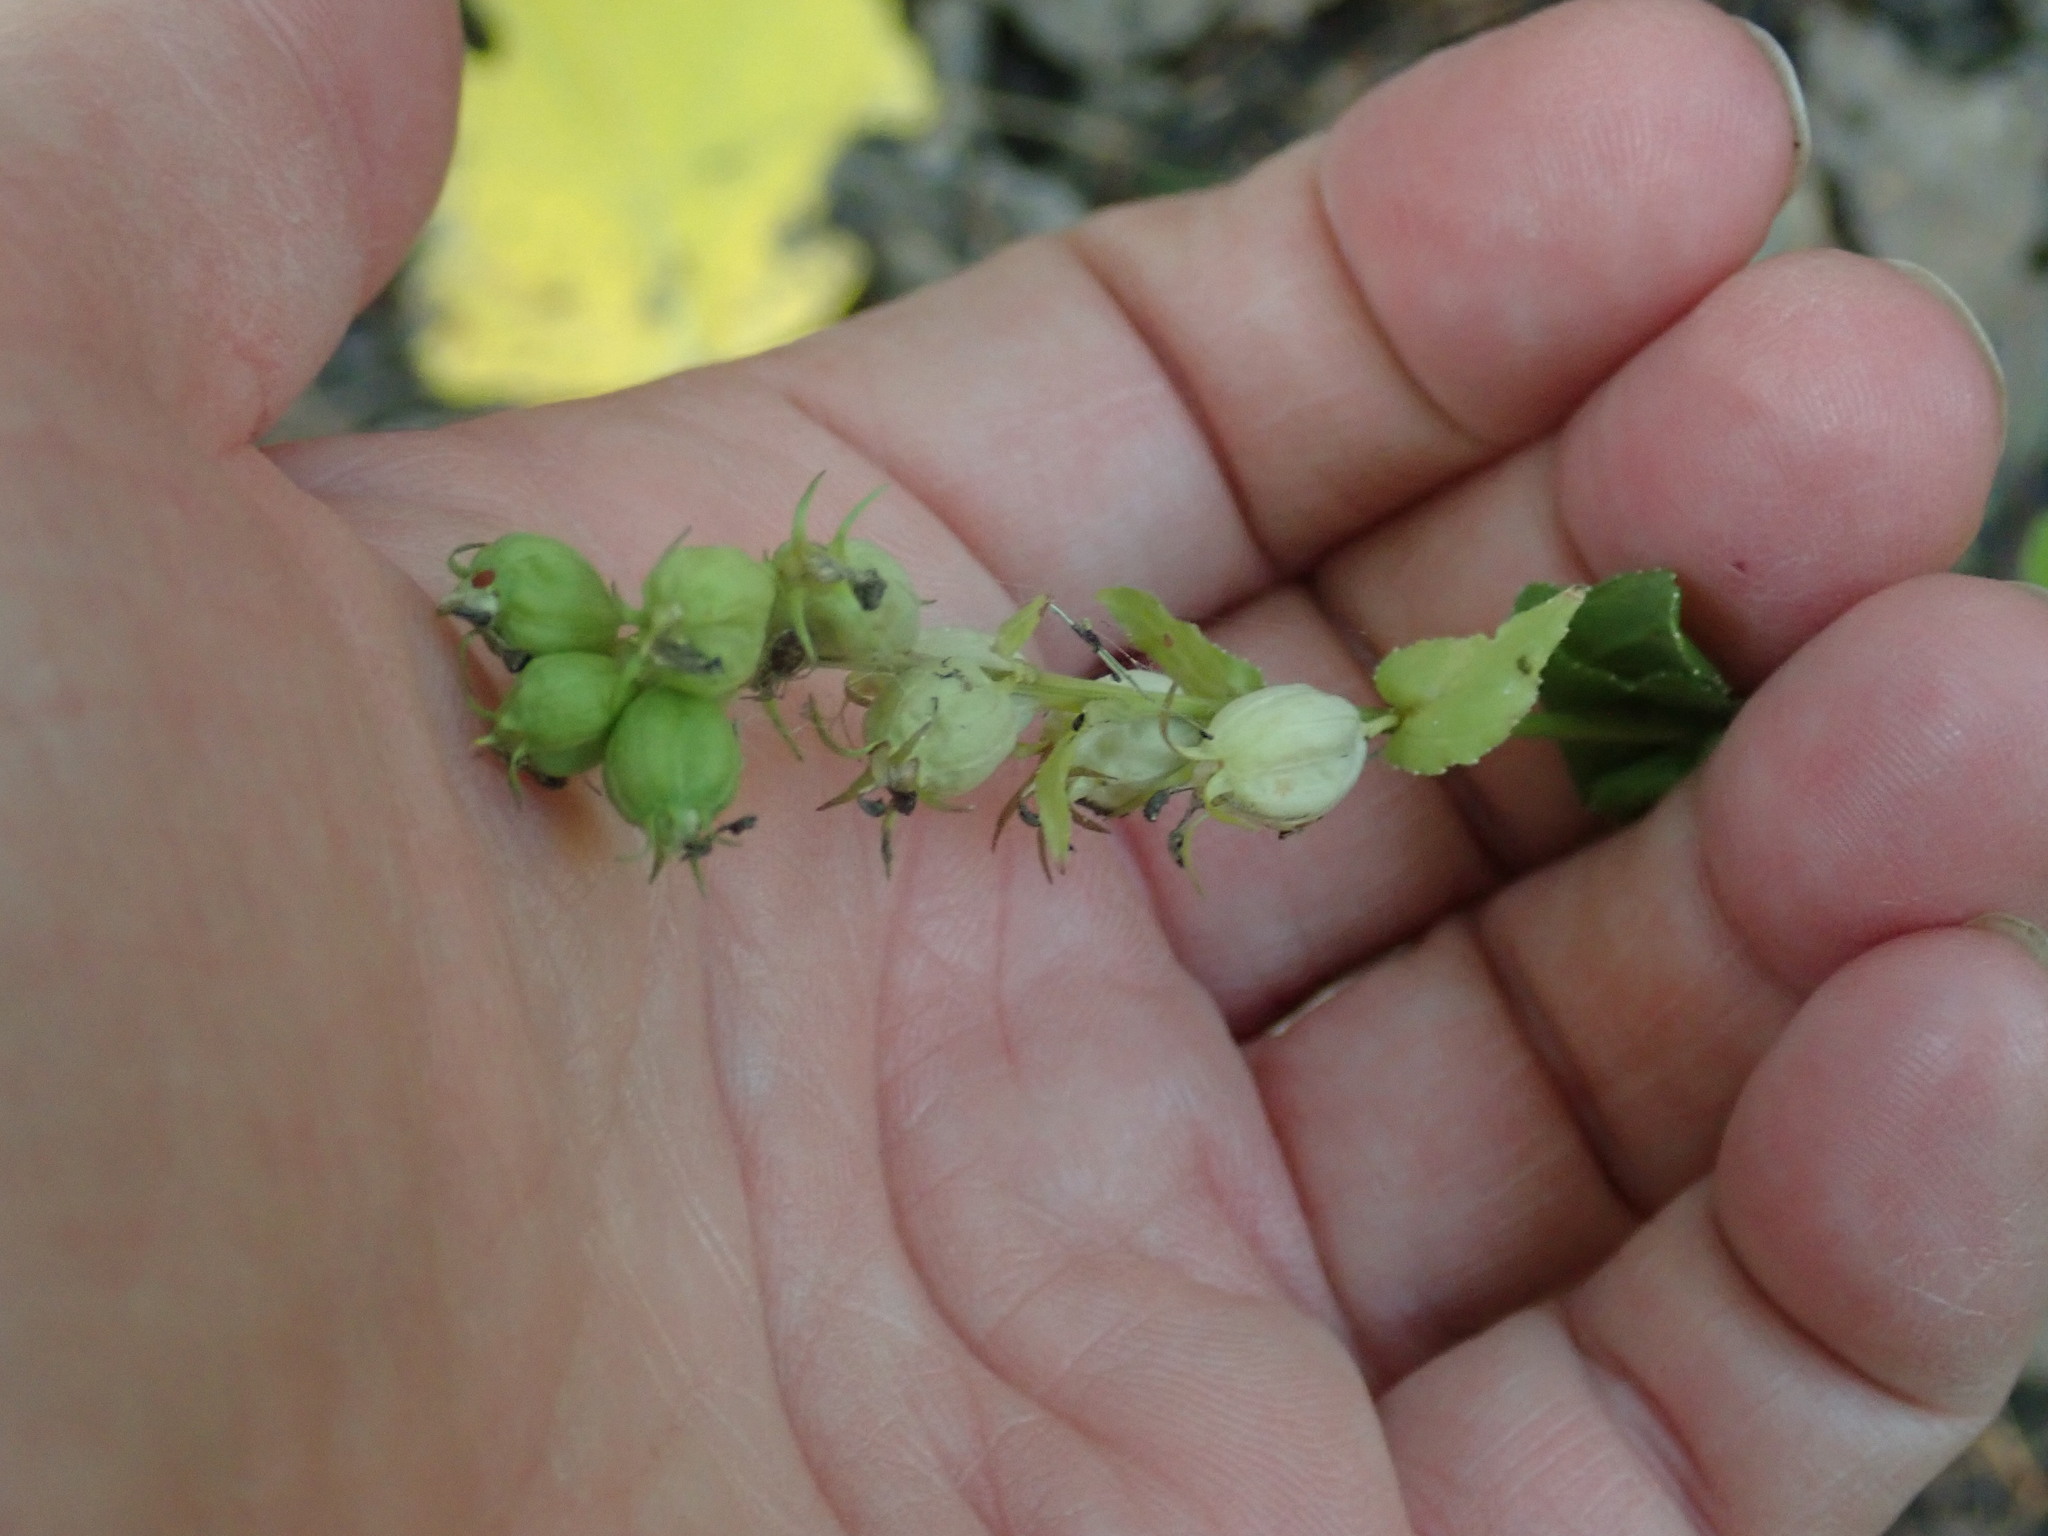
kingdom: Plantae
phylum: Tracheophyta
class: Magnoliopsida
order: Asterales
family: Campanulaceae
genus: Lobelia
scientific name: Lobelia inflata
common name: Indian tobacco
